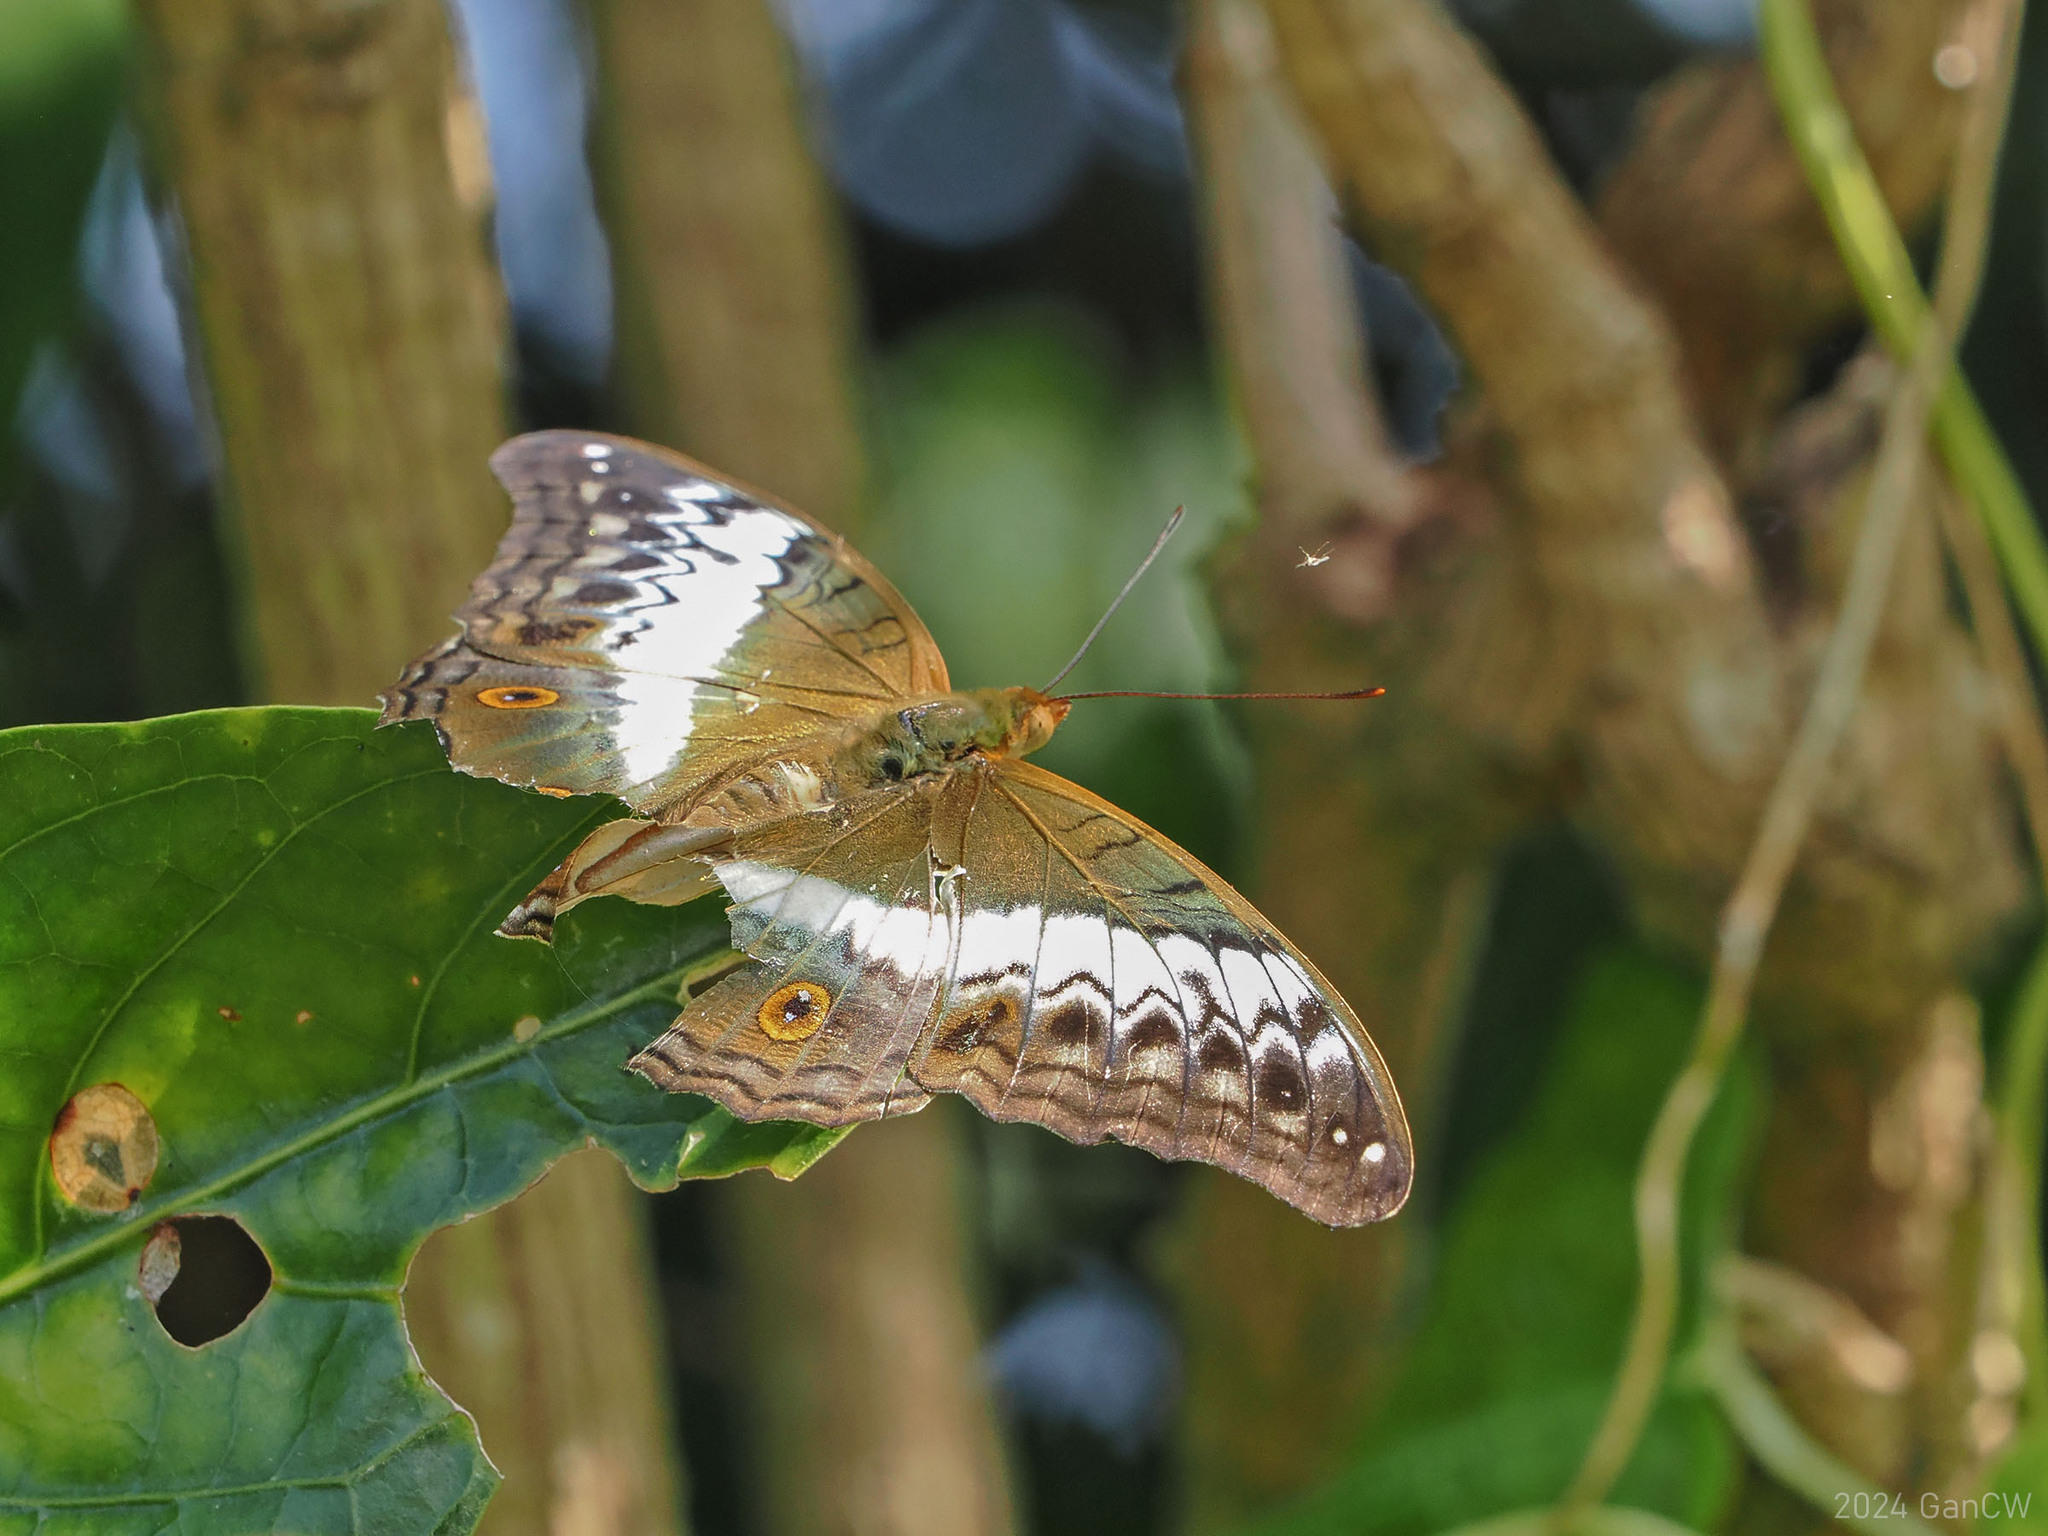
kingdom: Animalia
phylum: Arthropoda
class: Insecta
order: Lepidoptera
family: Nymphalidae
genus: Vindula
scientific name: Vindula deione
